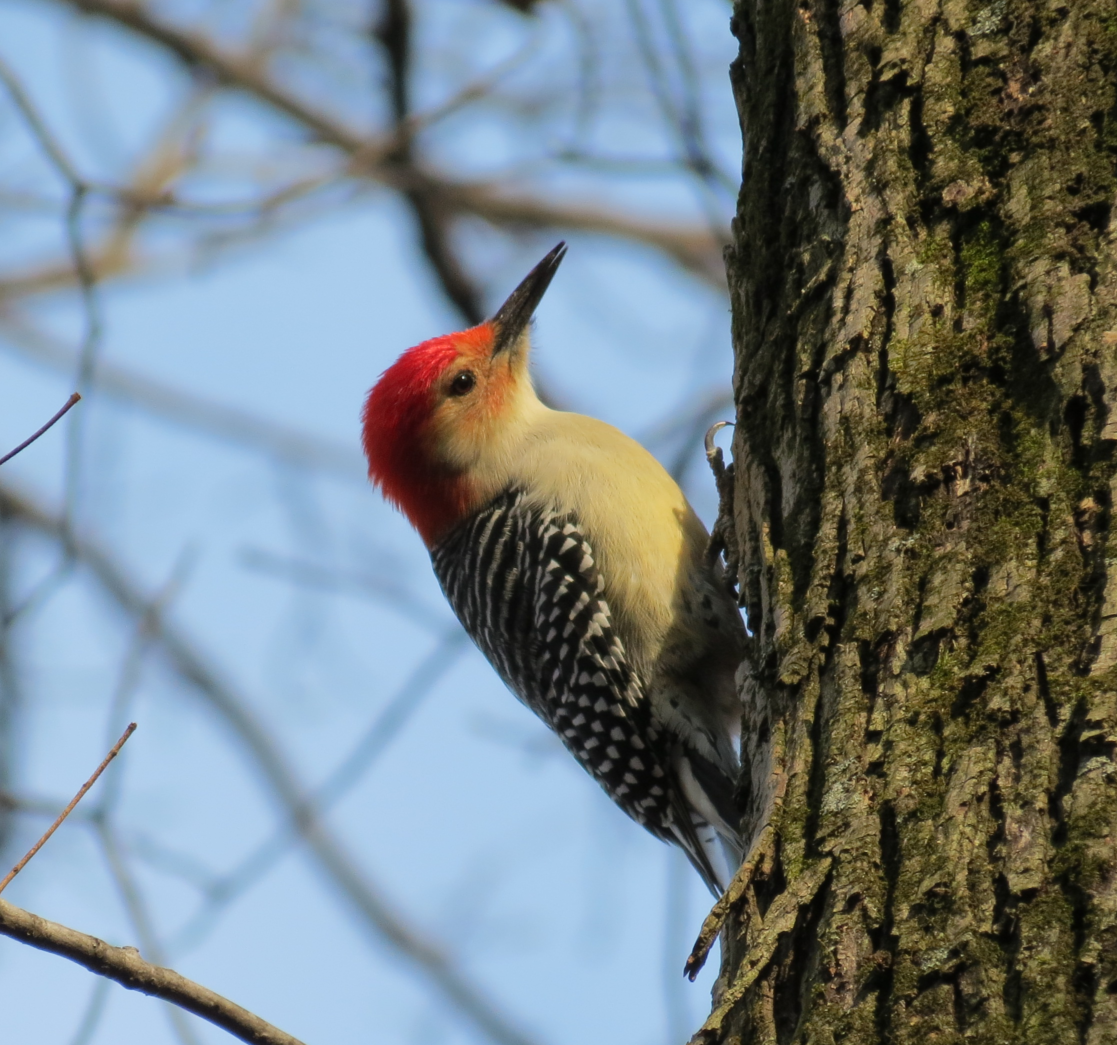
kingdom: Animalia
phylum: Chordata
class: Aves
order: Piciformes
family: Picidae
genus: Melanerpes
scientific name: Melanerpes carolinus
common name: Red-bellied woodpecker
